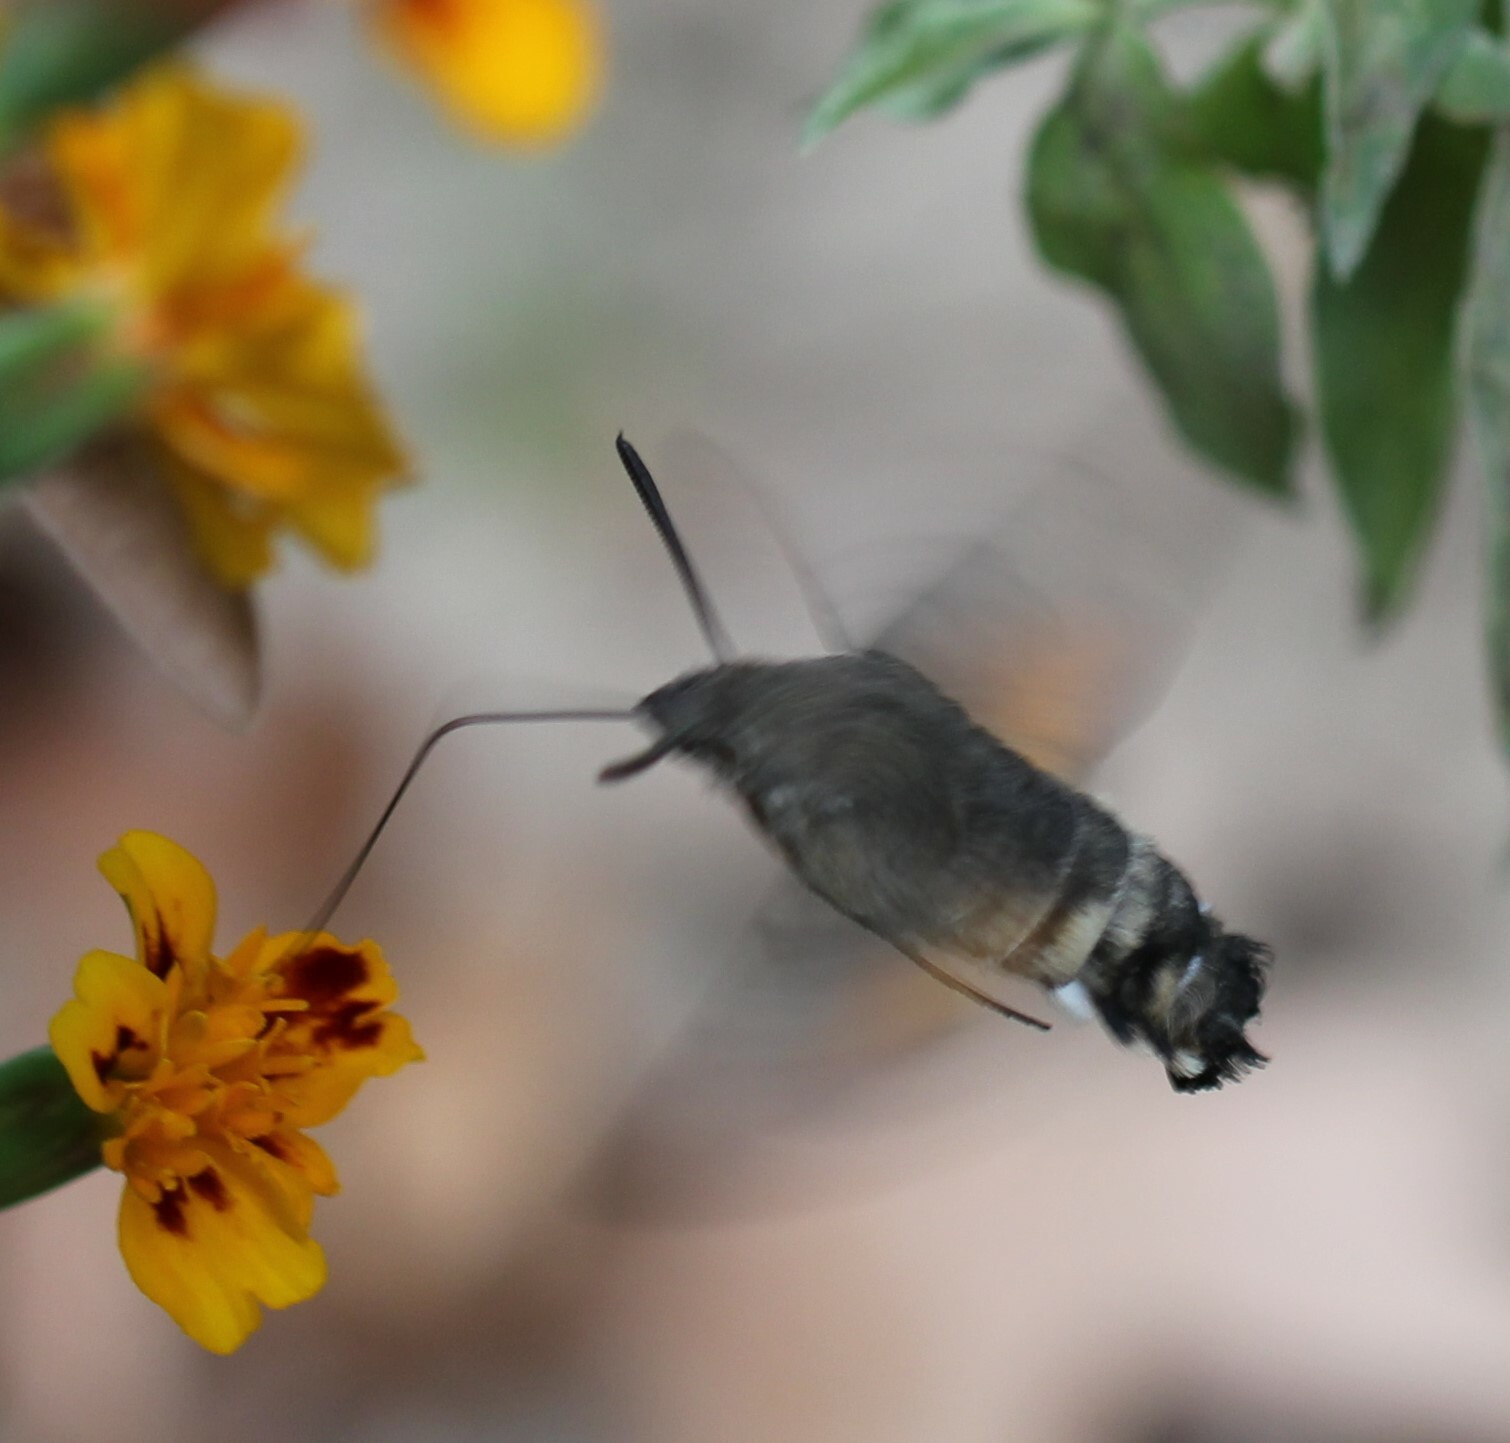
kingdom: Animalia
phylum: Arthropoda
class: Insecta
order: Lepidoptera
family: Sphingidae
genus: Macroglossum
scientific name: Macroglossum stellatarum
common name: Humming-bird hawk-moth
